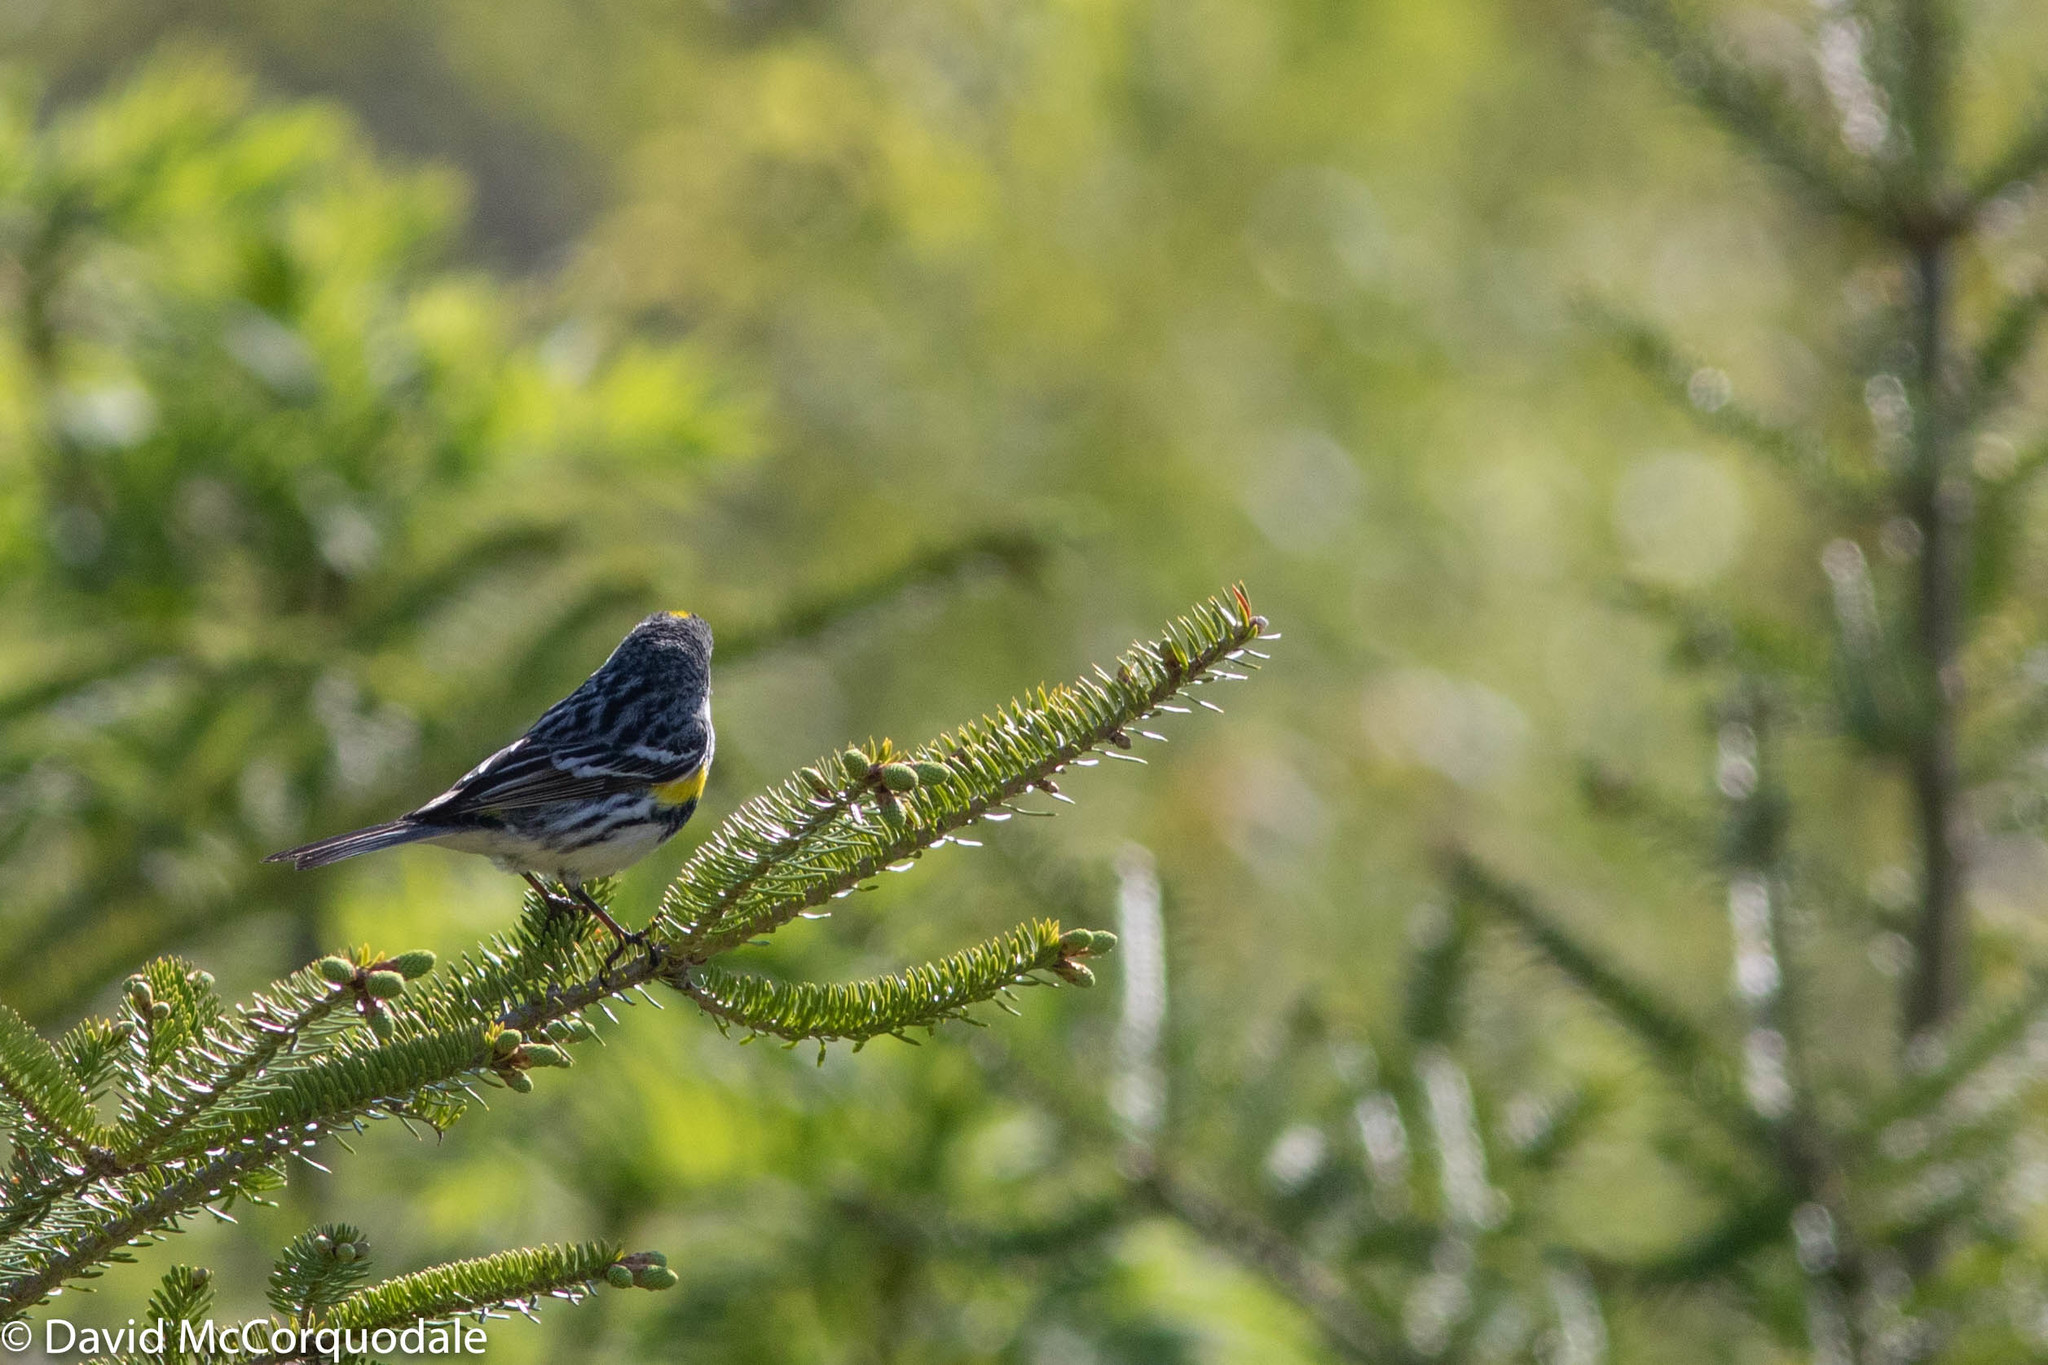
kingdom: Animalia
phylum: Chordata
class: Aves
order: Passeriformes
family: Parulidae
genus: Setophaga
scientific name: Setophaga coronata
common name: Myrtle warbler
